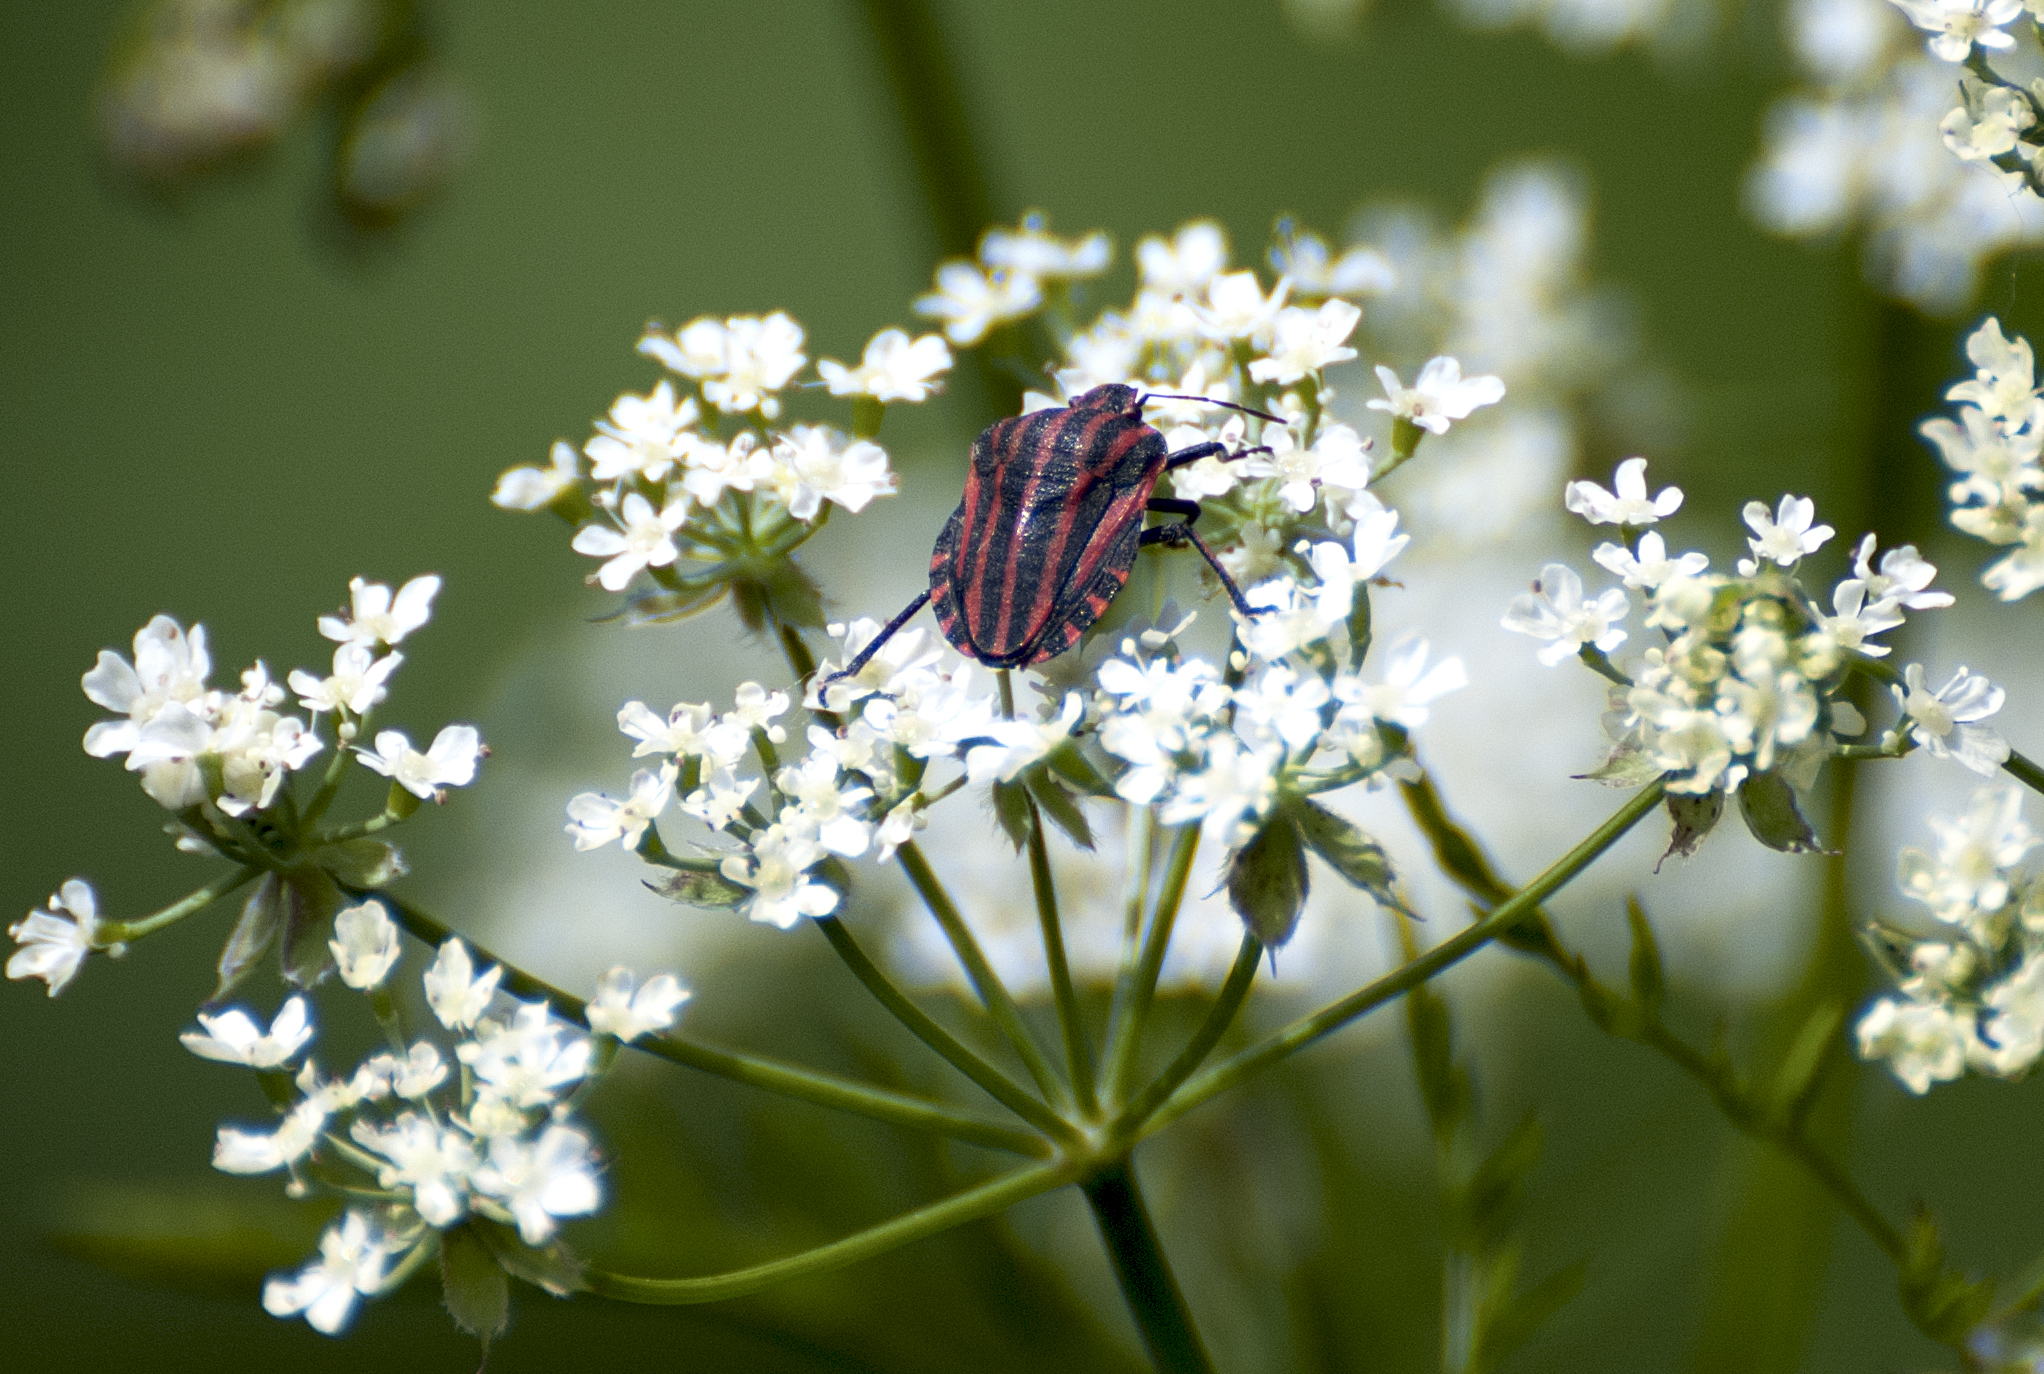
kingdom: Animalia
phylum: Arthropoda
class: Insecta
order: Hemiptera
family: Pentatomidae
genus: Graphosoma
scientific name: Graphosoma italicum
